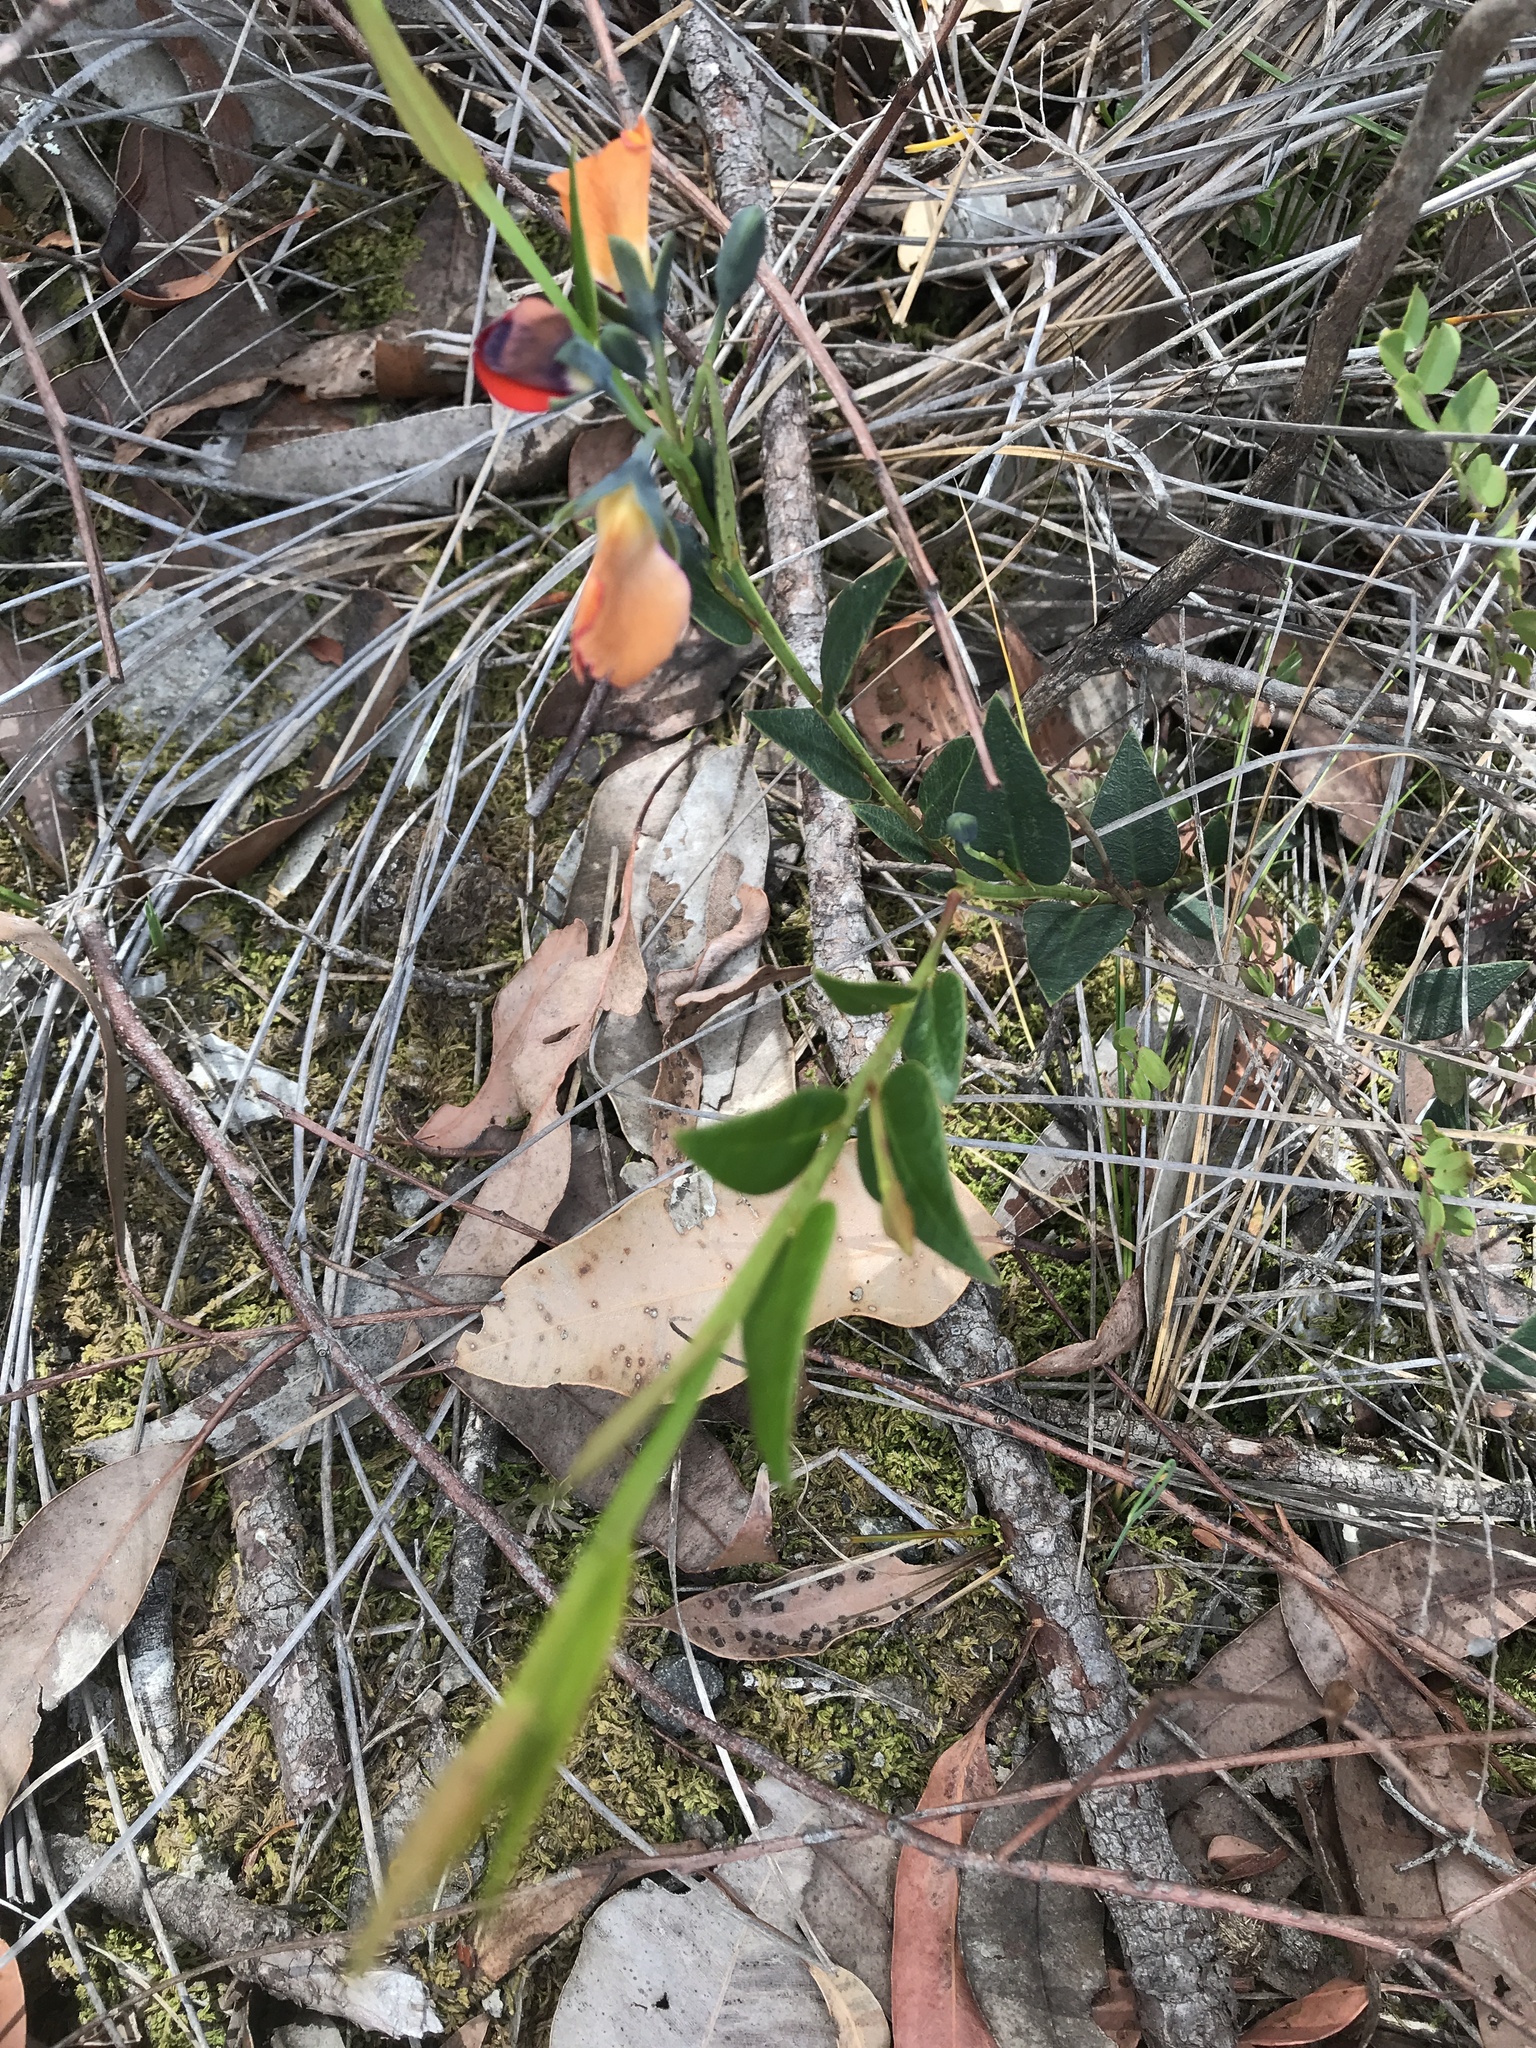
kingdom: Plantae
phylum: Tracheophyta
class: Magnoliopsida
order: Fabales
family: Fabaceae
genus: Gompholobium
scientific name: Gompholobium ovatum
